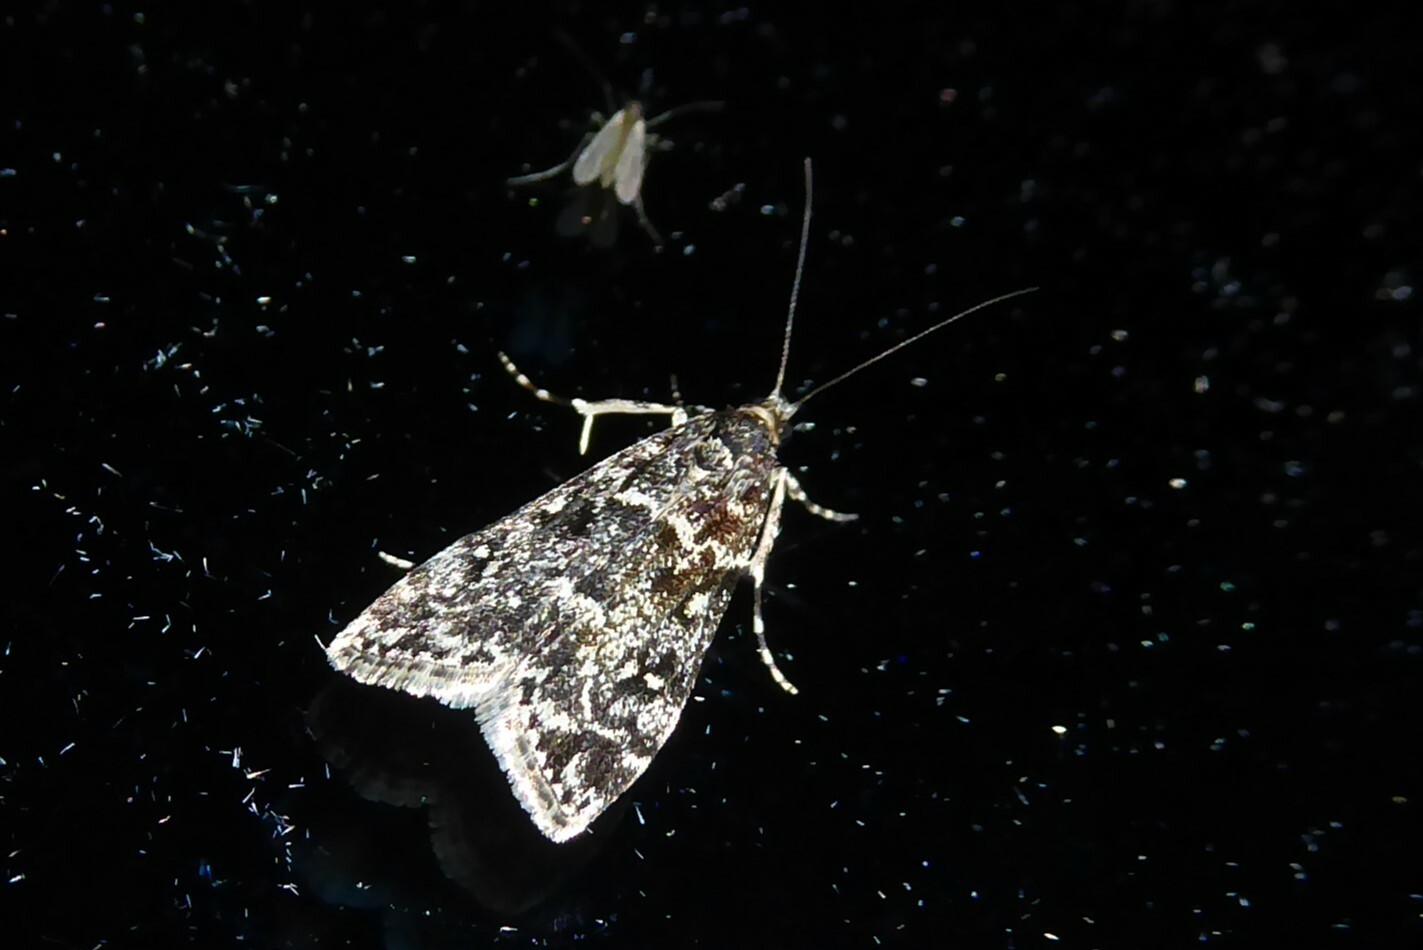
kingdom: Animalia
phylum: Arthropoda
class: Insecta
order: Lepidoptera
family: Crambidae
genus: Eudonia
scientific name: Eudonia philerga
